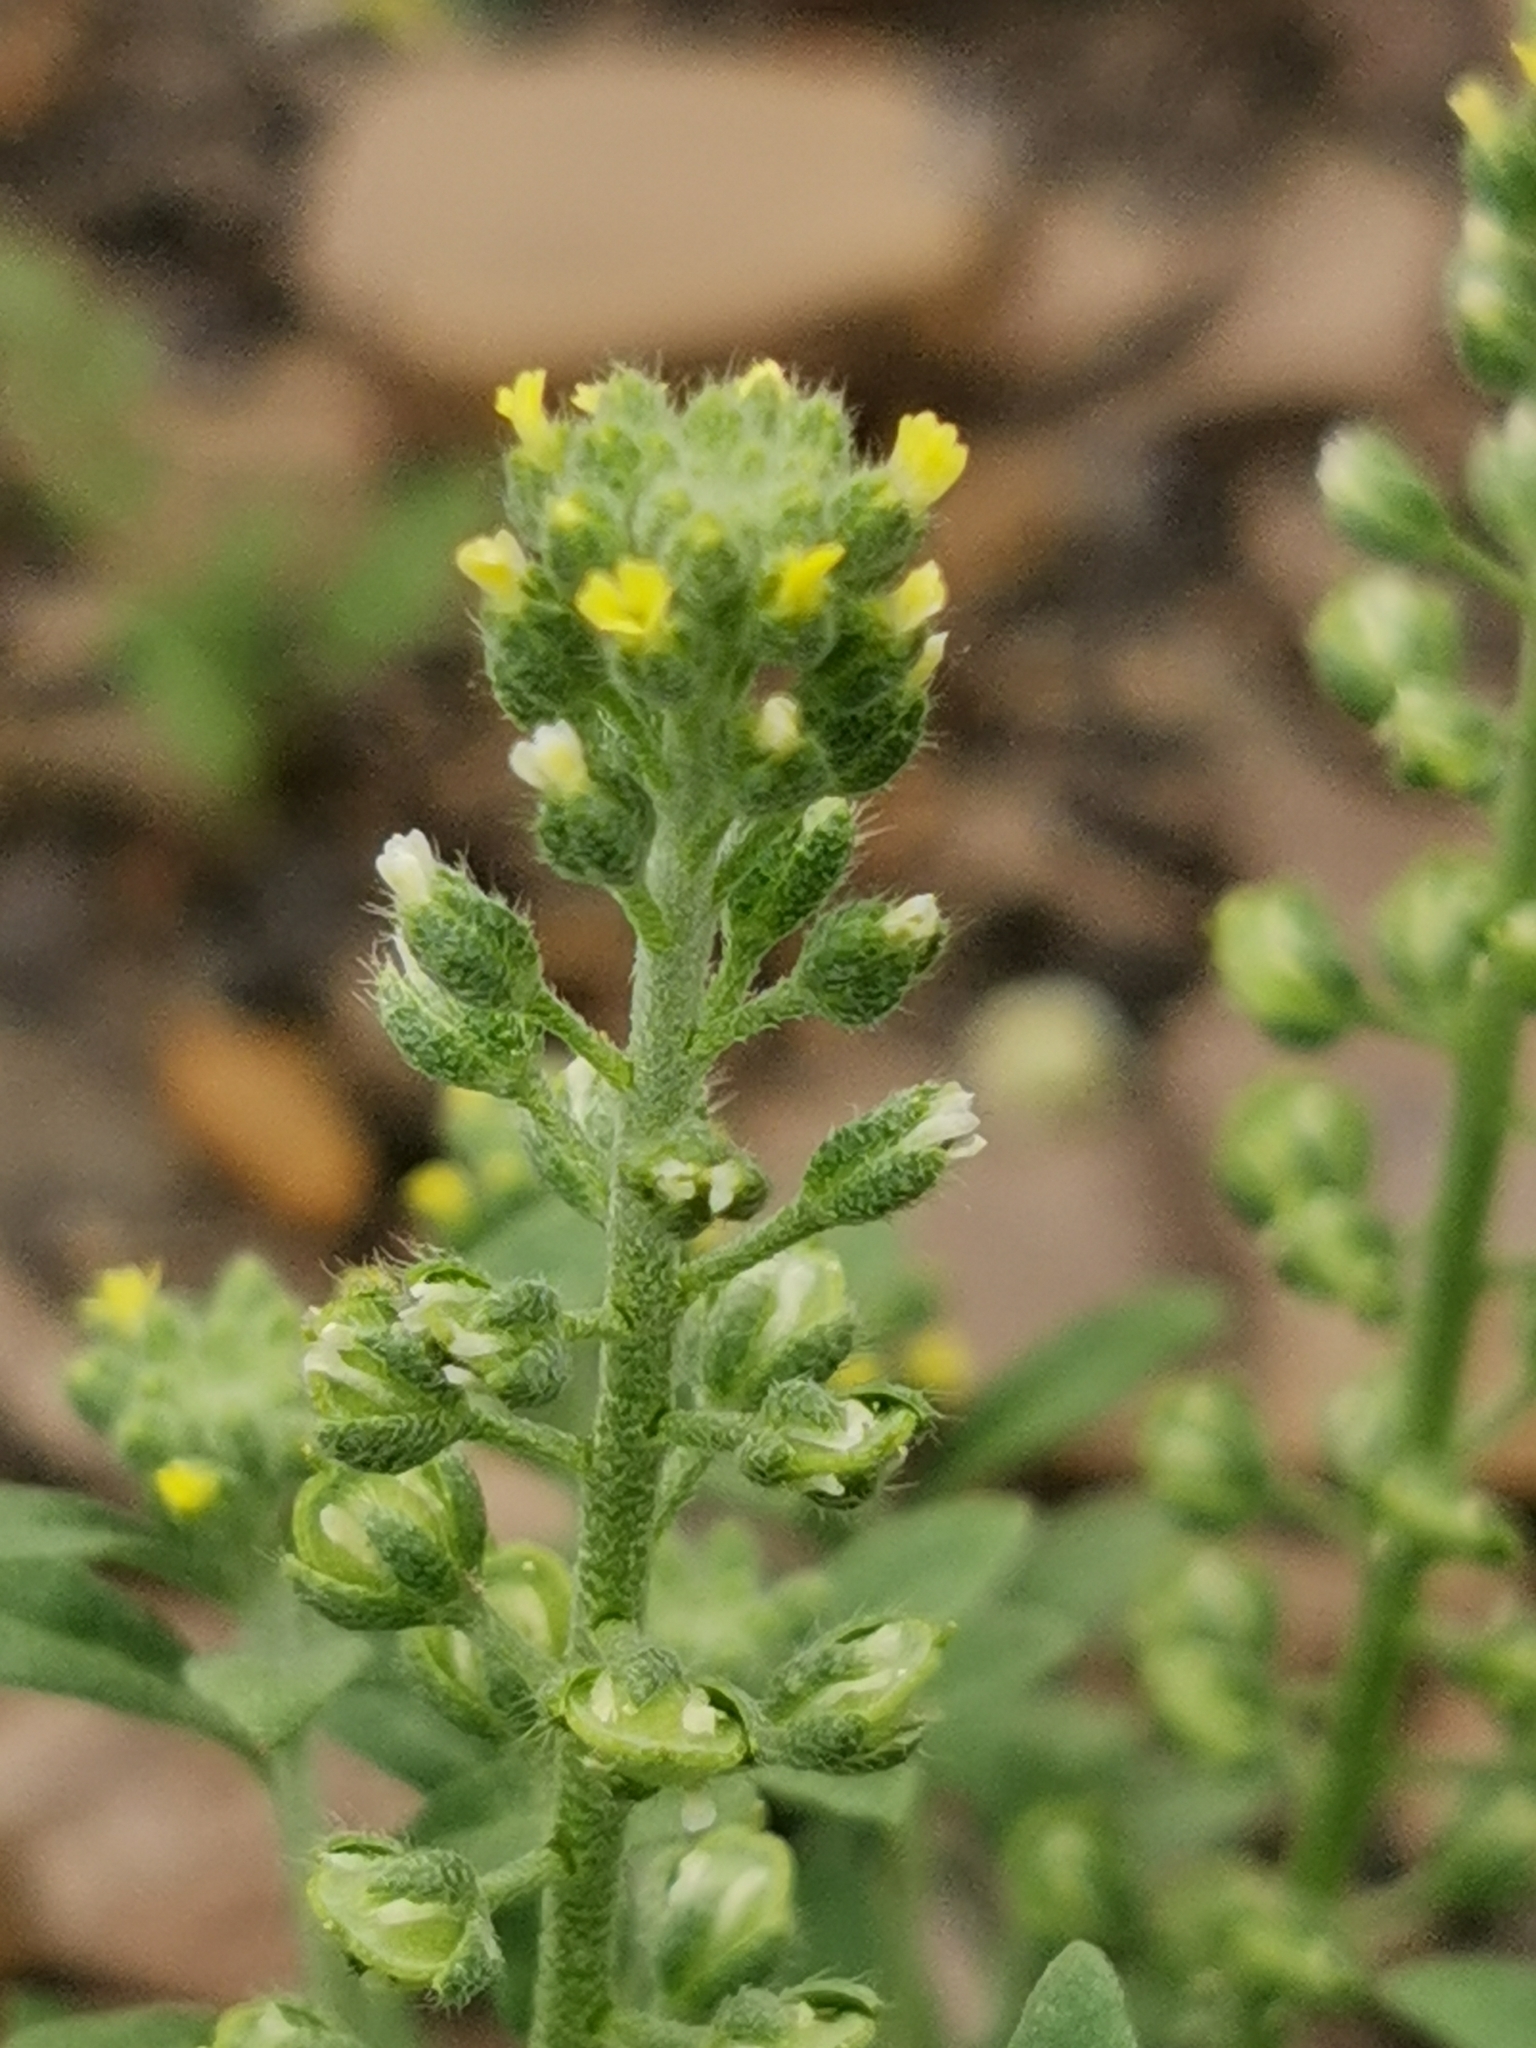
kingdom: Plantae
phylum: Tracheophyta
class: Magnoliopsida
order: Brassicales
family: Brassicaceae
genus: Alyssum
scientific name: Alyssum alyssoides
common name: Small alison
